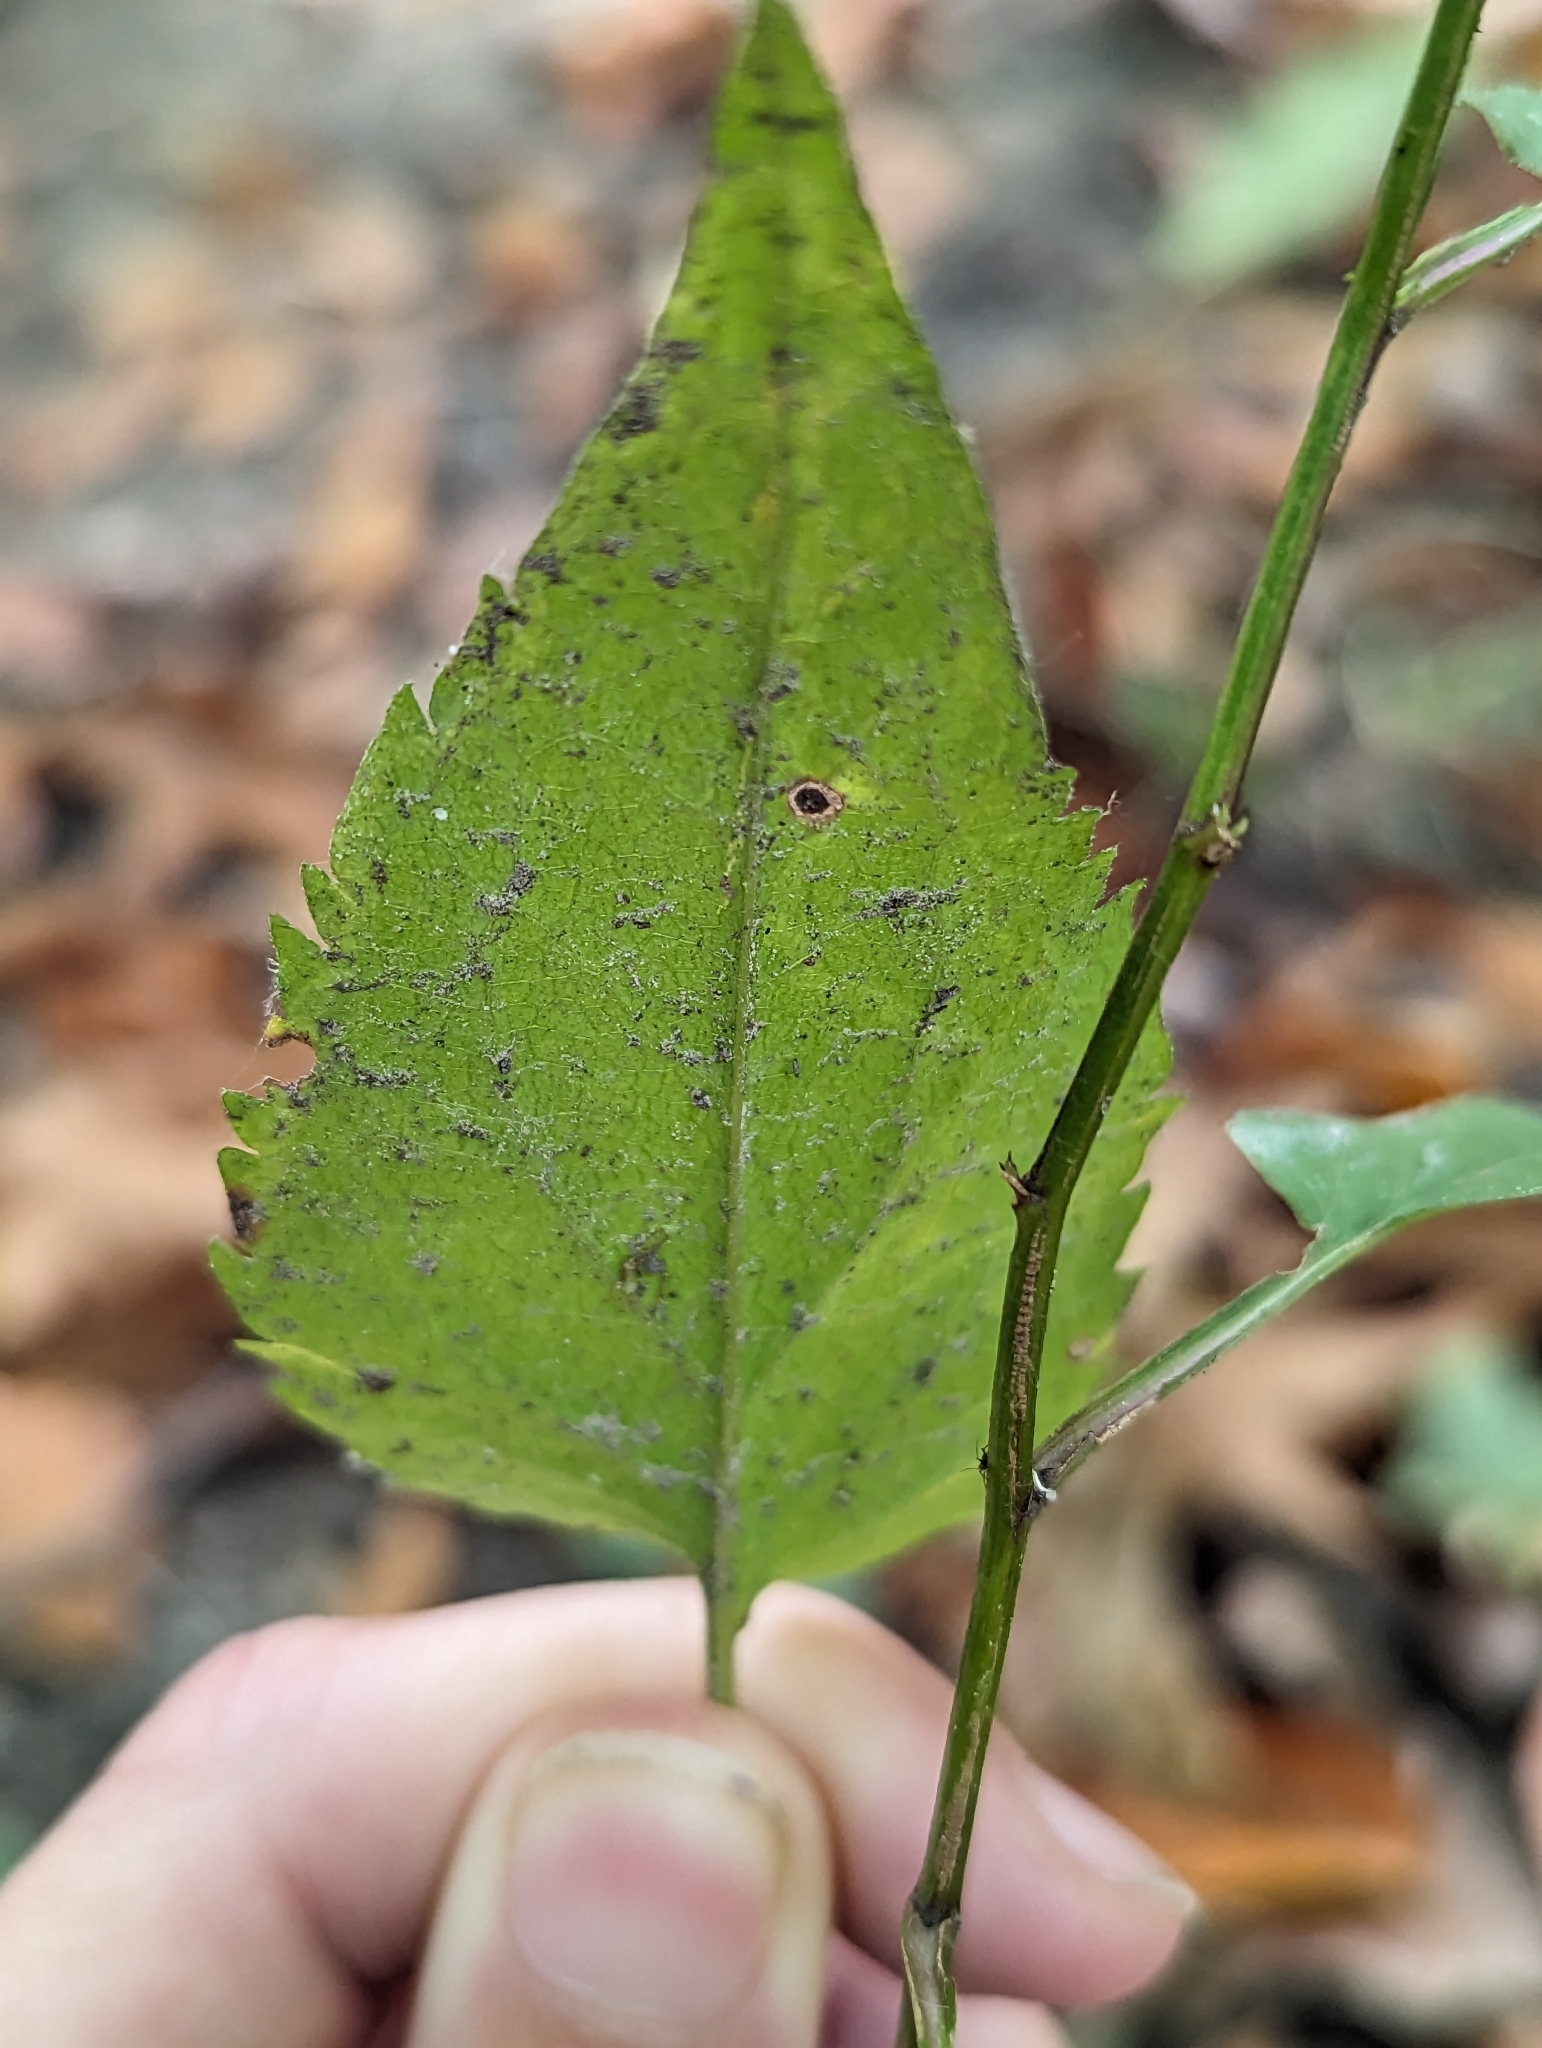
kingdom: Plantae
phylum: Tracheophyta
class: Magnoliopsida
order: Asterales
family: Asteraceae
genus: Symphyotrichum
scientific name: Symphyotrichum cordifolium
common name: Beeweed
